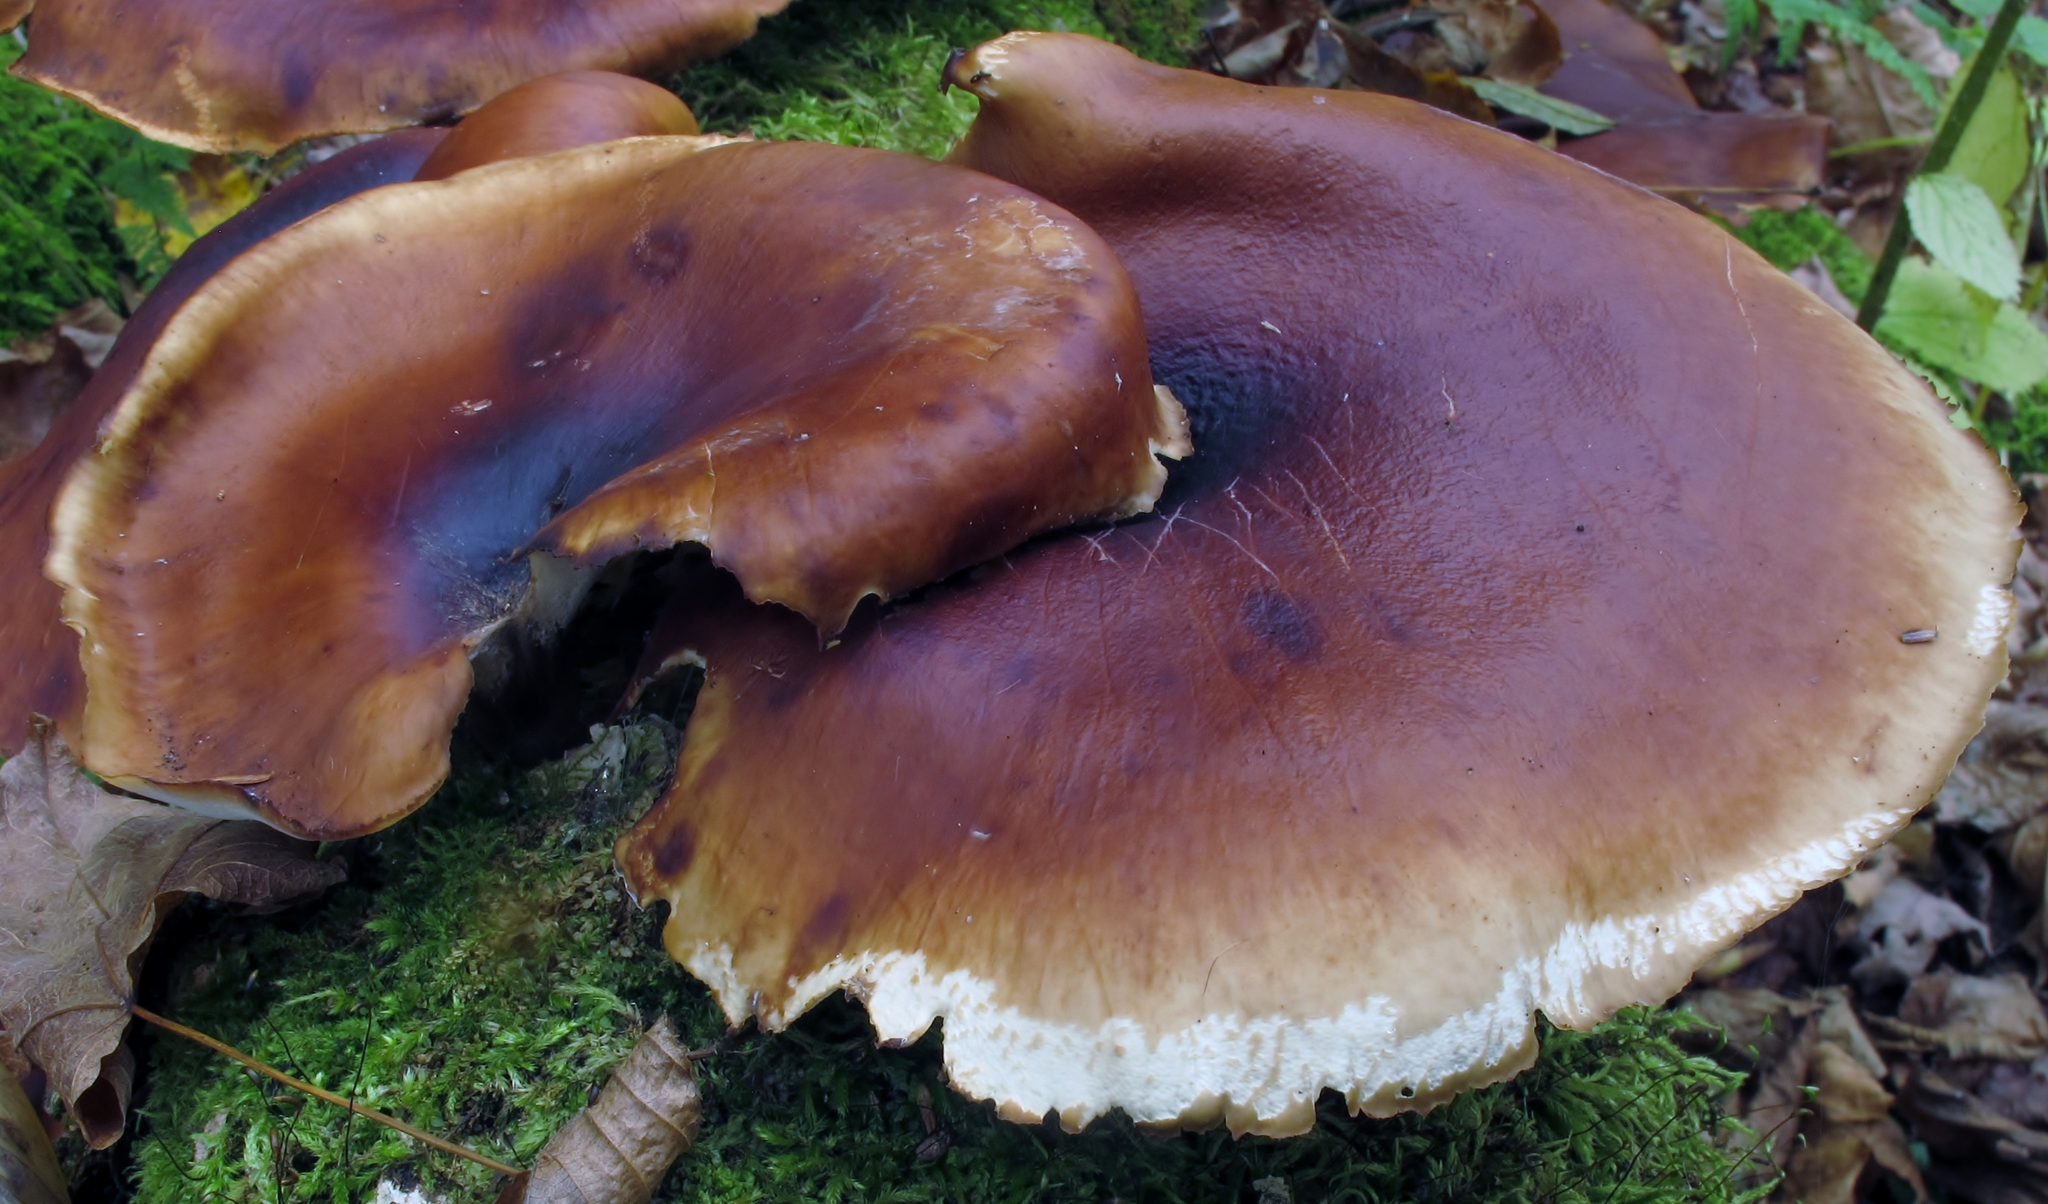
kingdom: Fungi
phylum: Basidiomycota
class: Agaricomycetes
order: Polyporales
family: Polyporaceae
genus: Picipes
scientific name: Picipes badius
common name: Bay polypore
